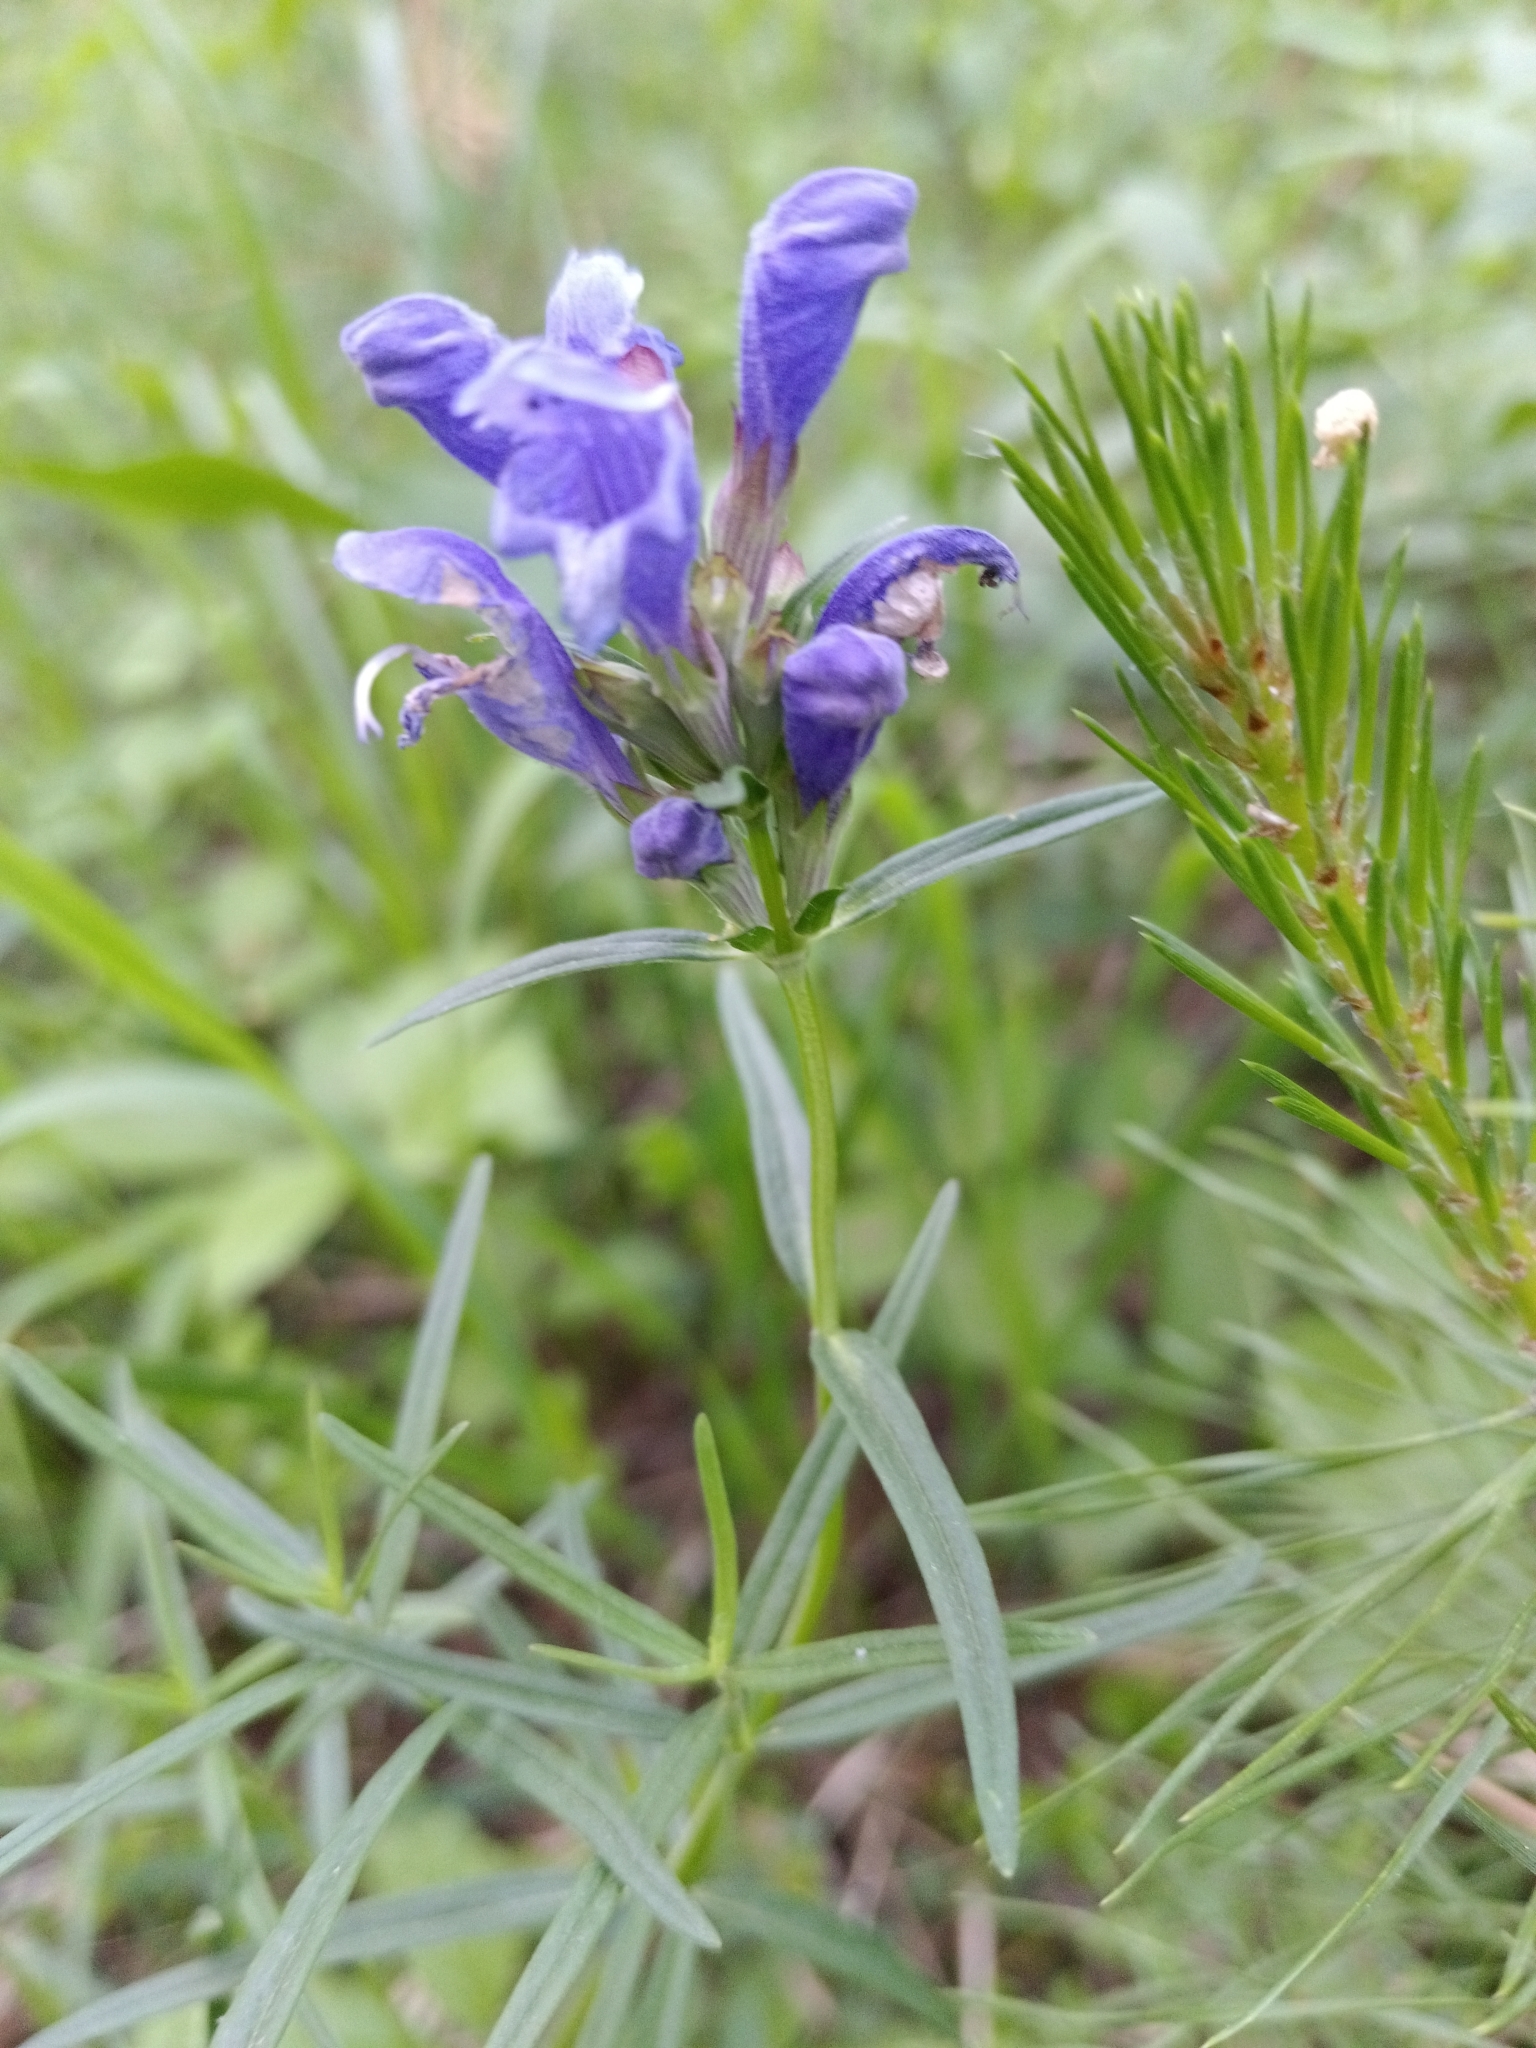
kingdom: Plantae
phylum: Tracheophyta
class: Magnoliopsida
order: Lamiales
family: Lamiaceae
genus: Dracocephalum
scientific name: Dracocephalum ruyschiana
